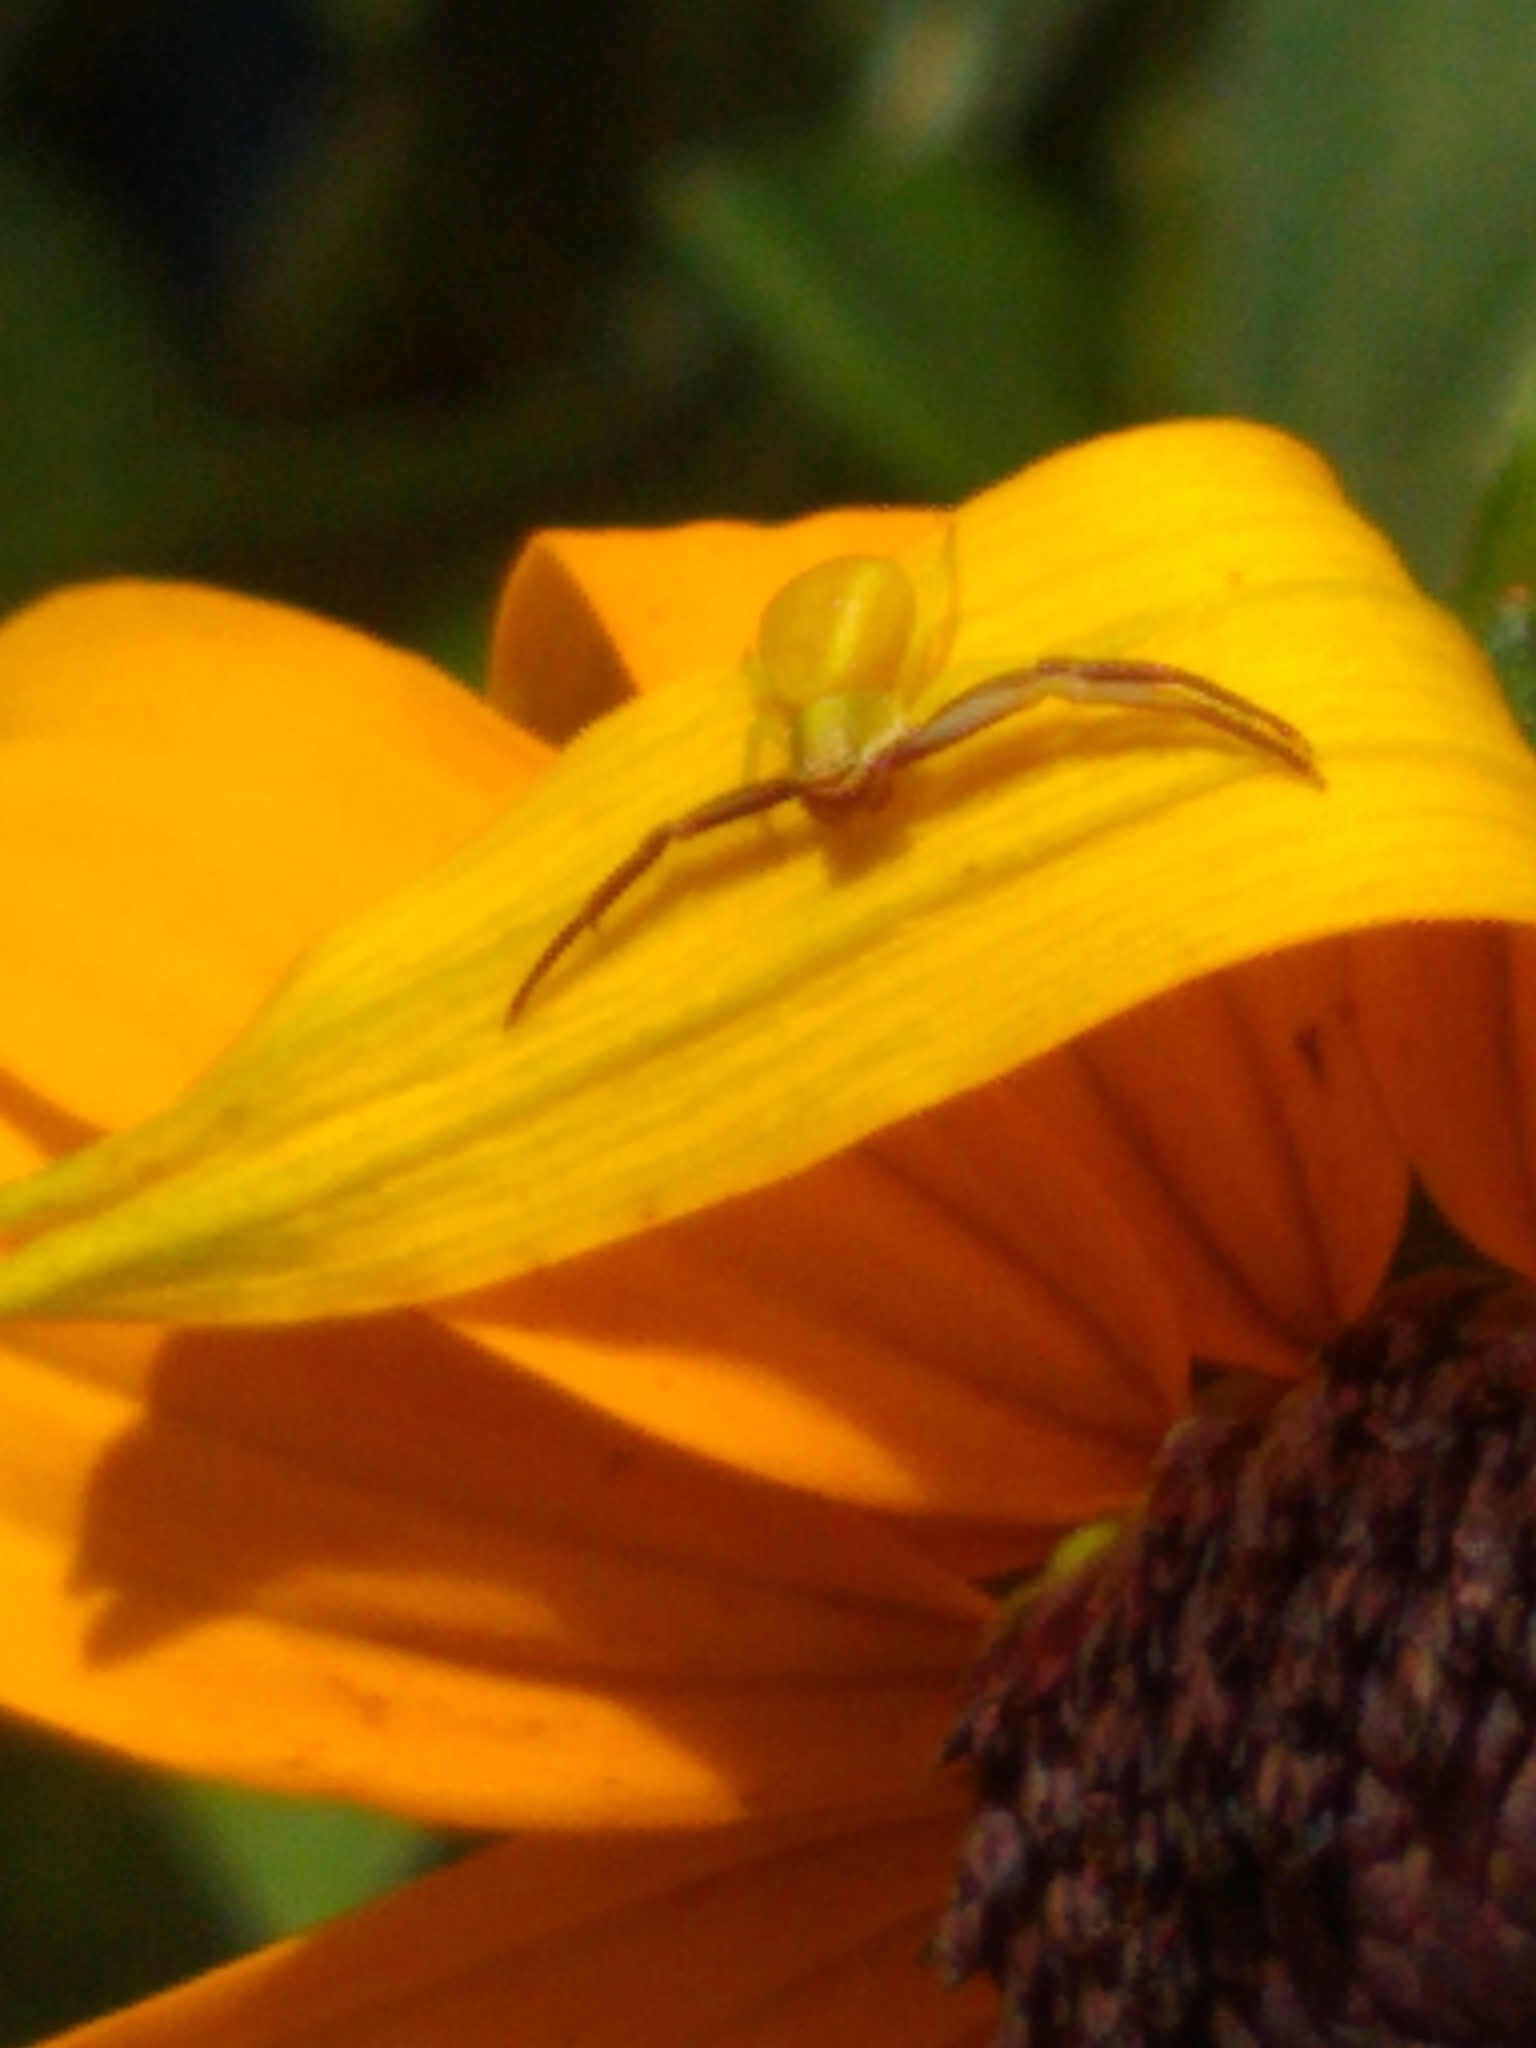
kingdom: Animalia
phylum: Arthropoda
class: Arachnida
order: Araneae
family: Thomisidae
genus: Misumenoides
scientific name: Misumenoides formosipes
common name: White-banded crab spider
